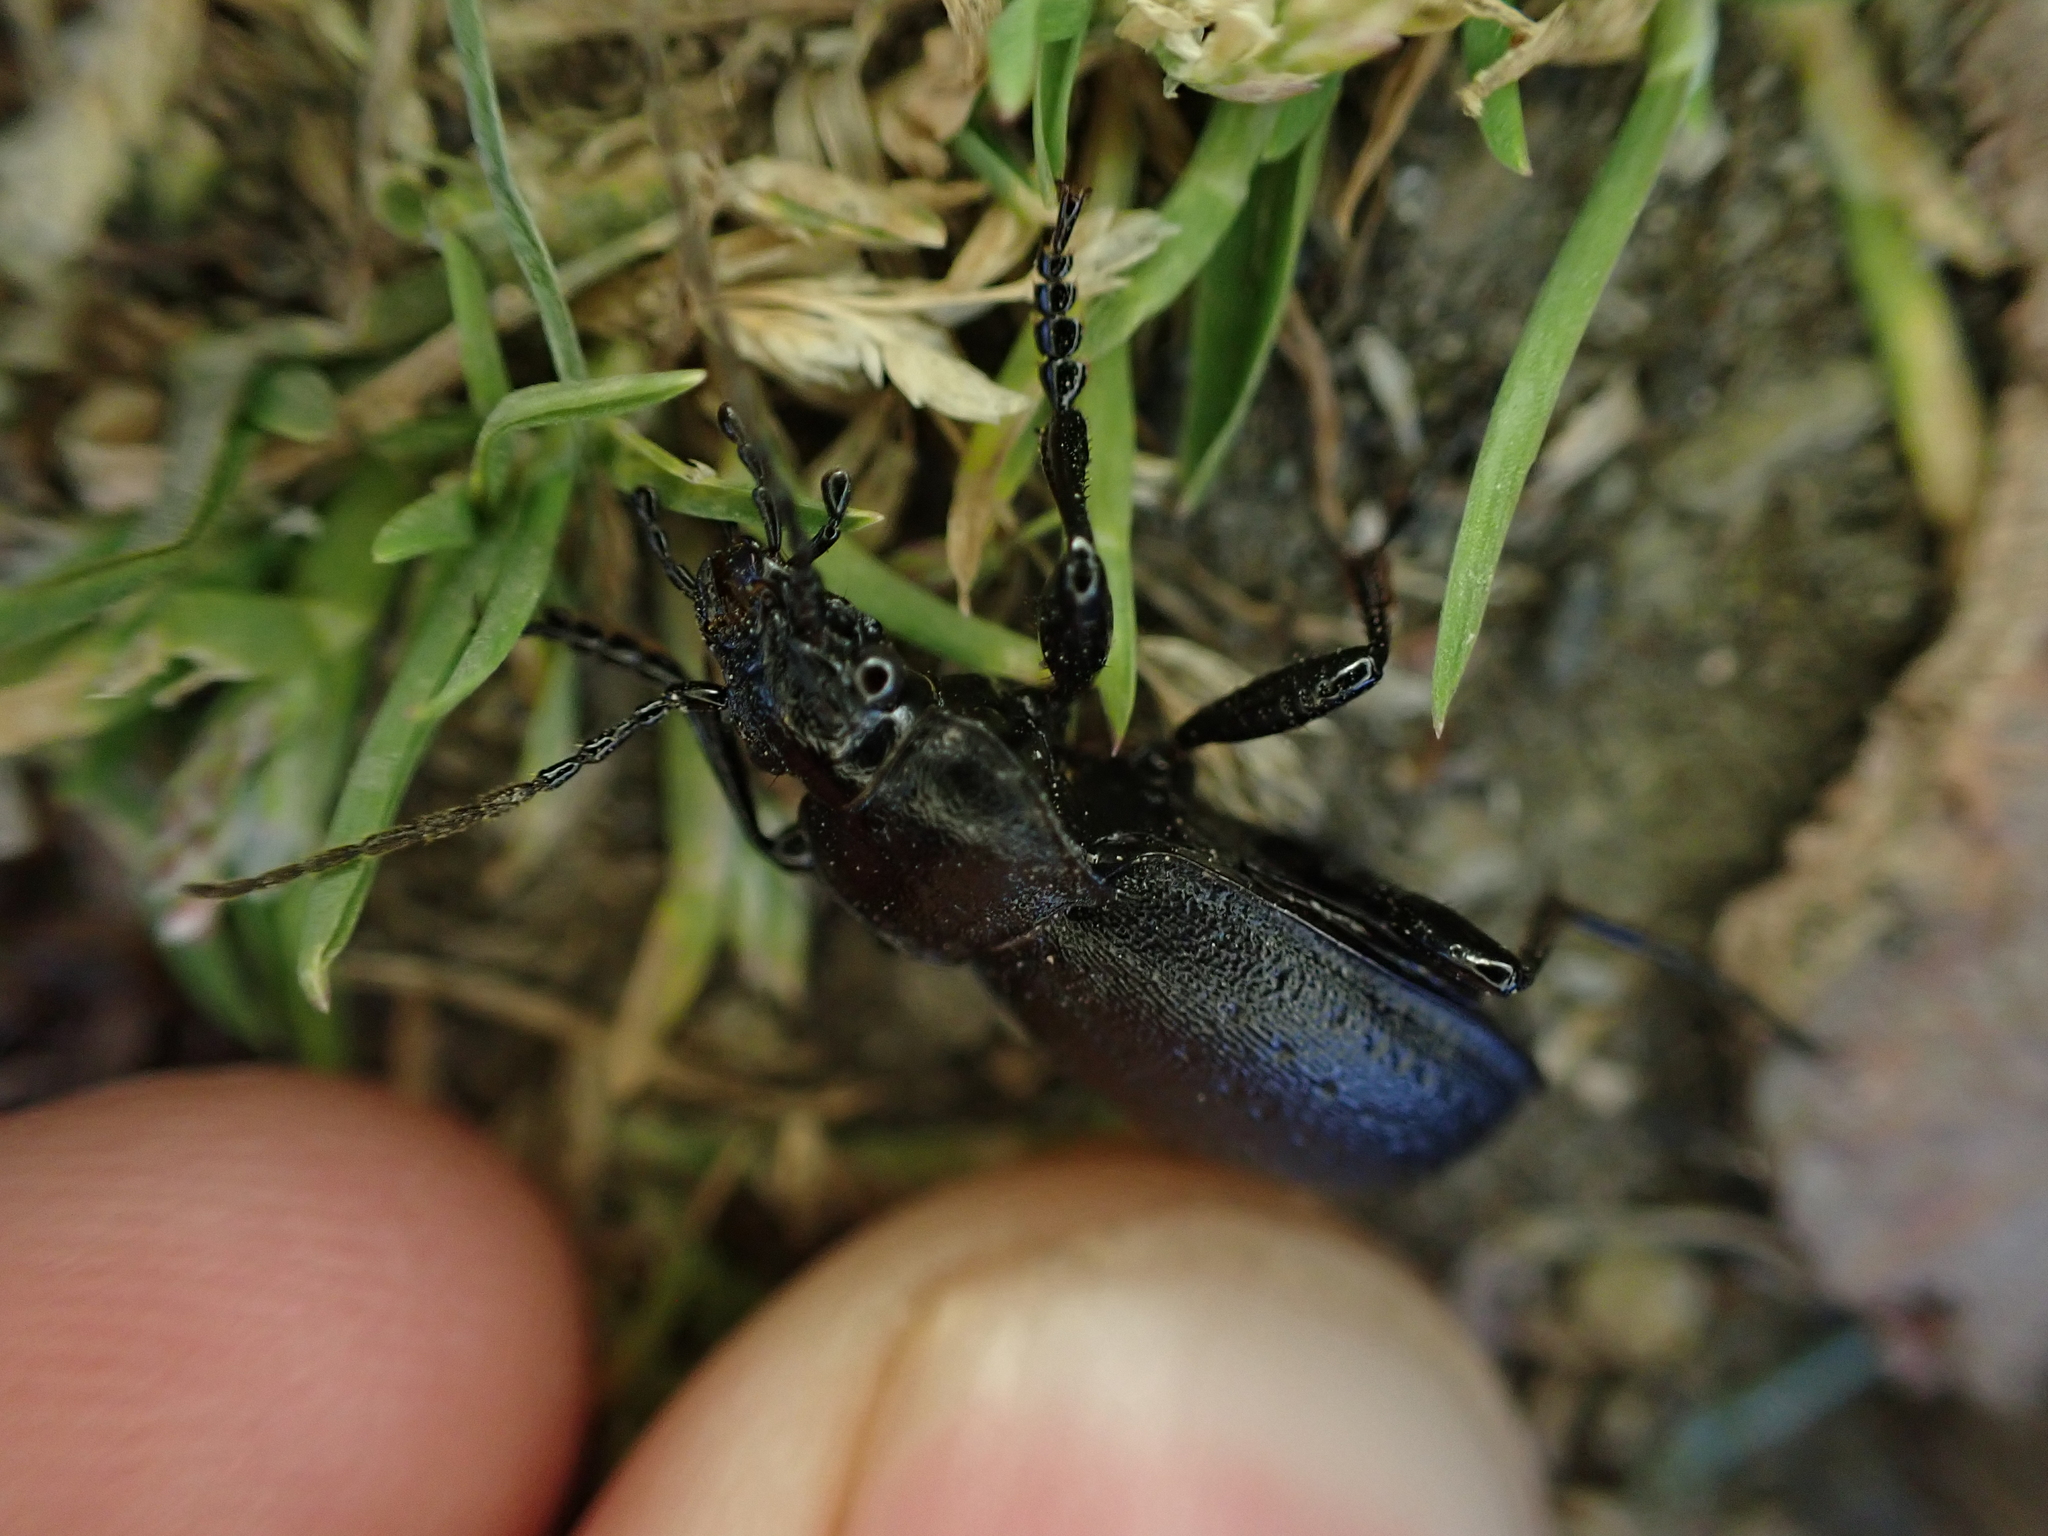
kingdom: Animalia
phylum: Arthropoda
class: Insecta
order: Coleoptera
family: Carabidae
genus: Carabus
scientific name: Carabus taedatus
